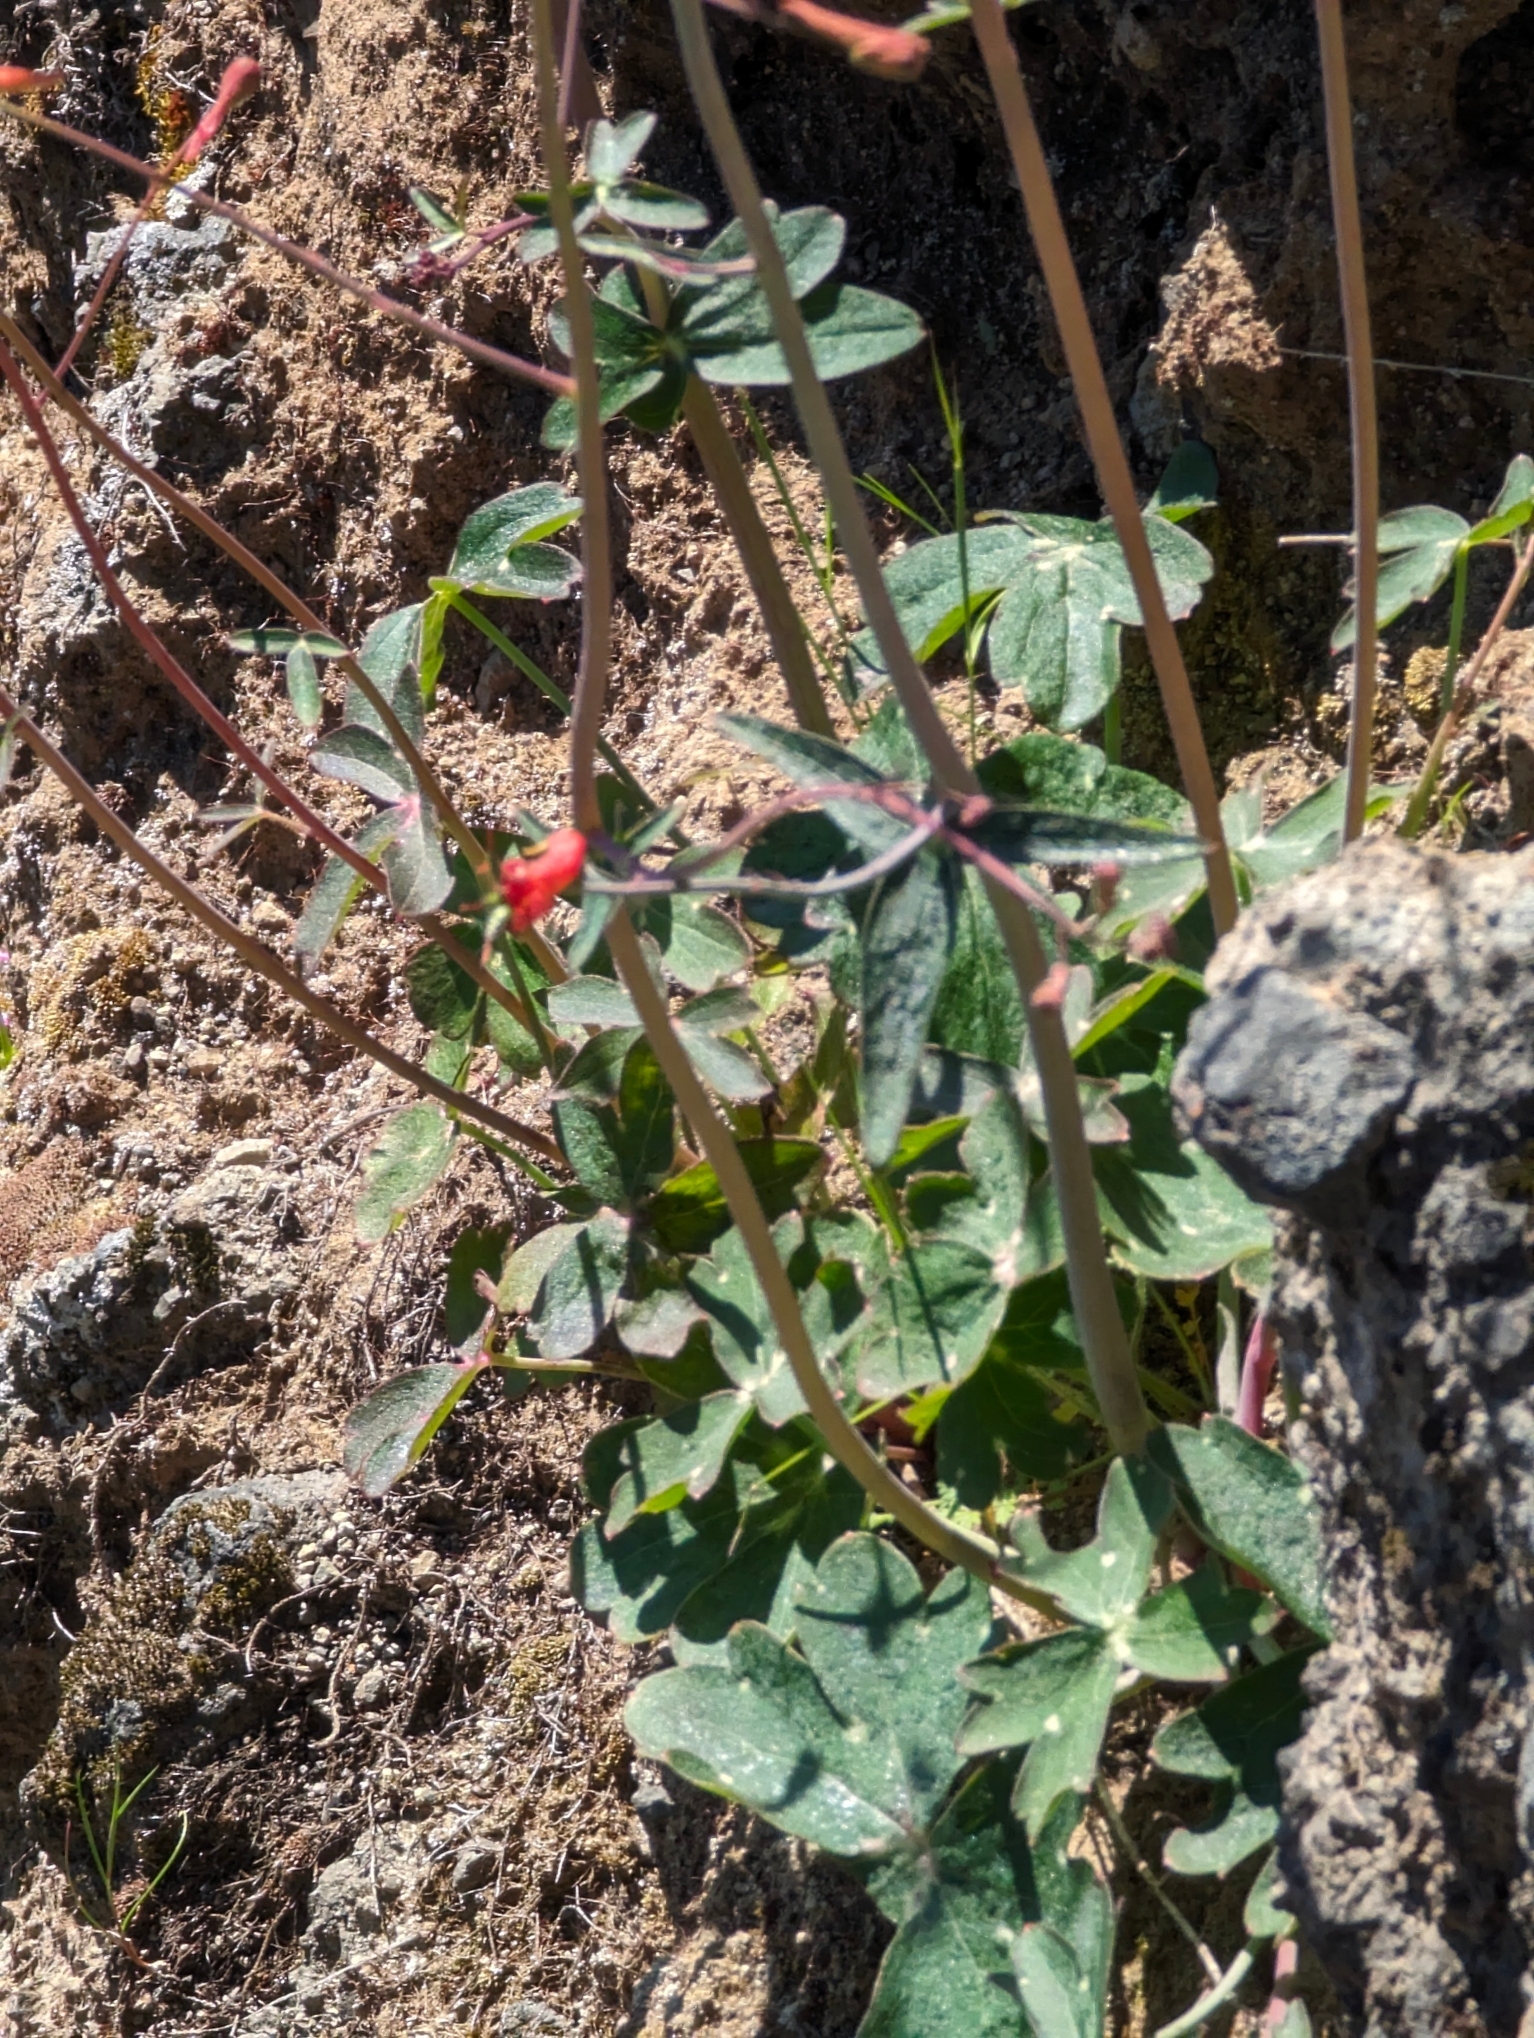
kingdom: Plantae
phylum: Tracheophyta
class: Magnoliopsida
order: Ranunculales
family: Ranunculaceae
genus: Delphinium
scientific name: Delphinium nudicaule
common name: Red larkspur
